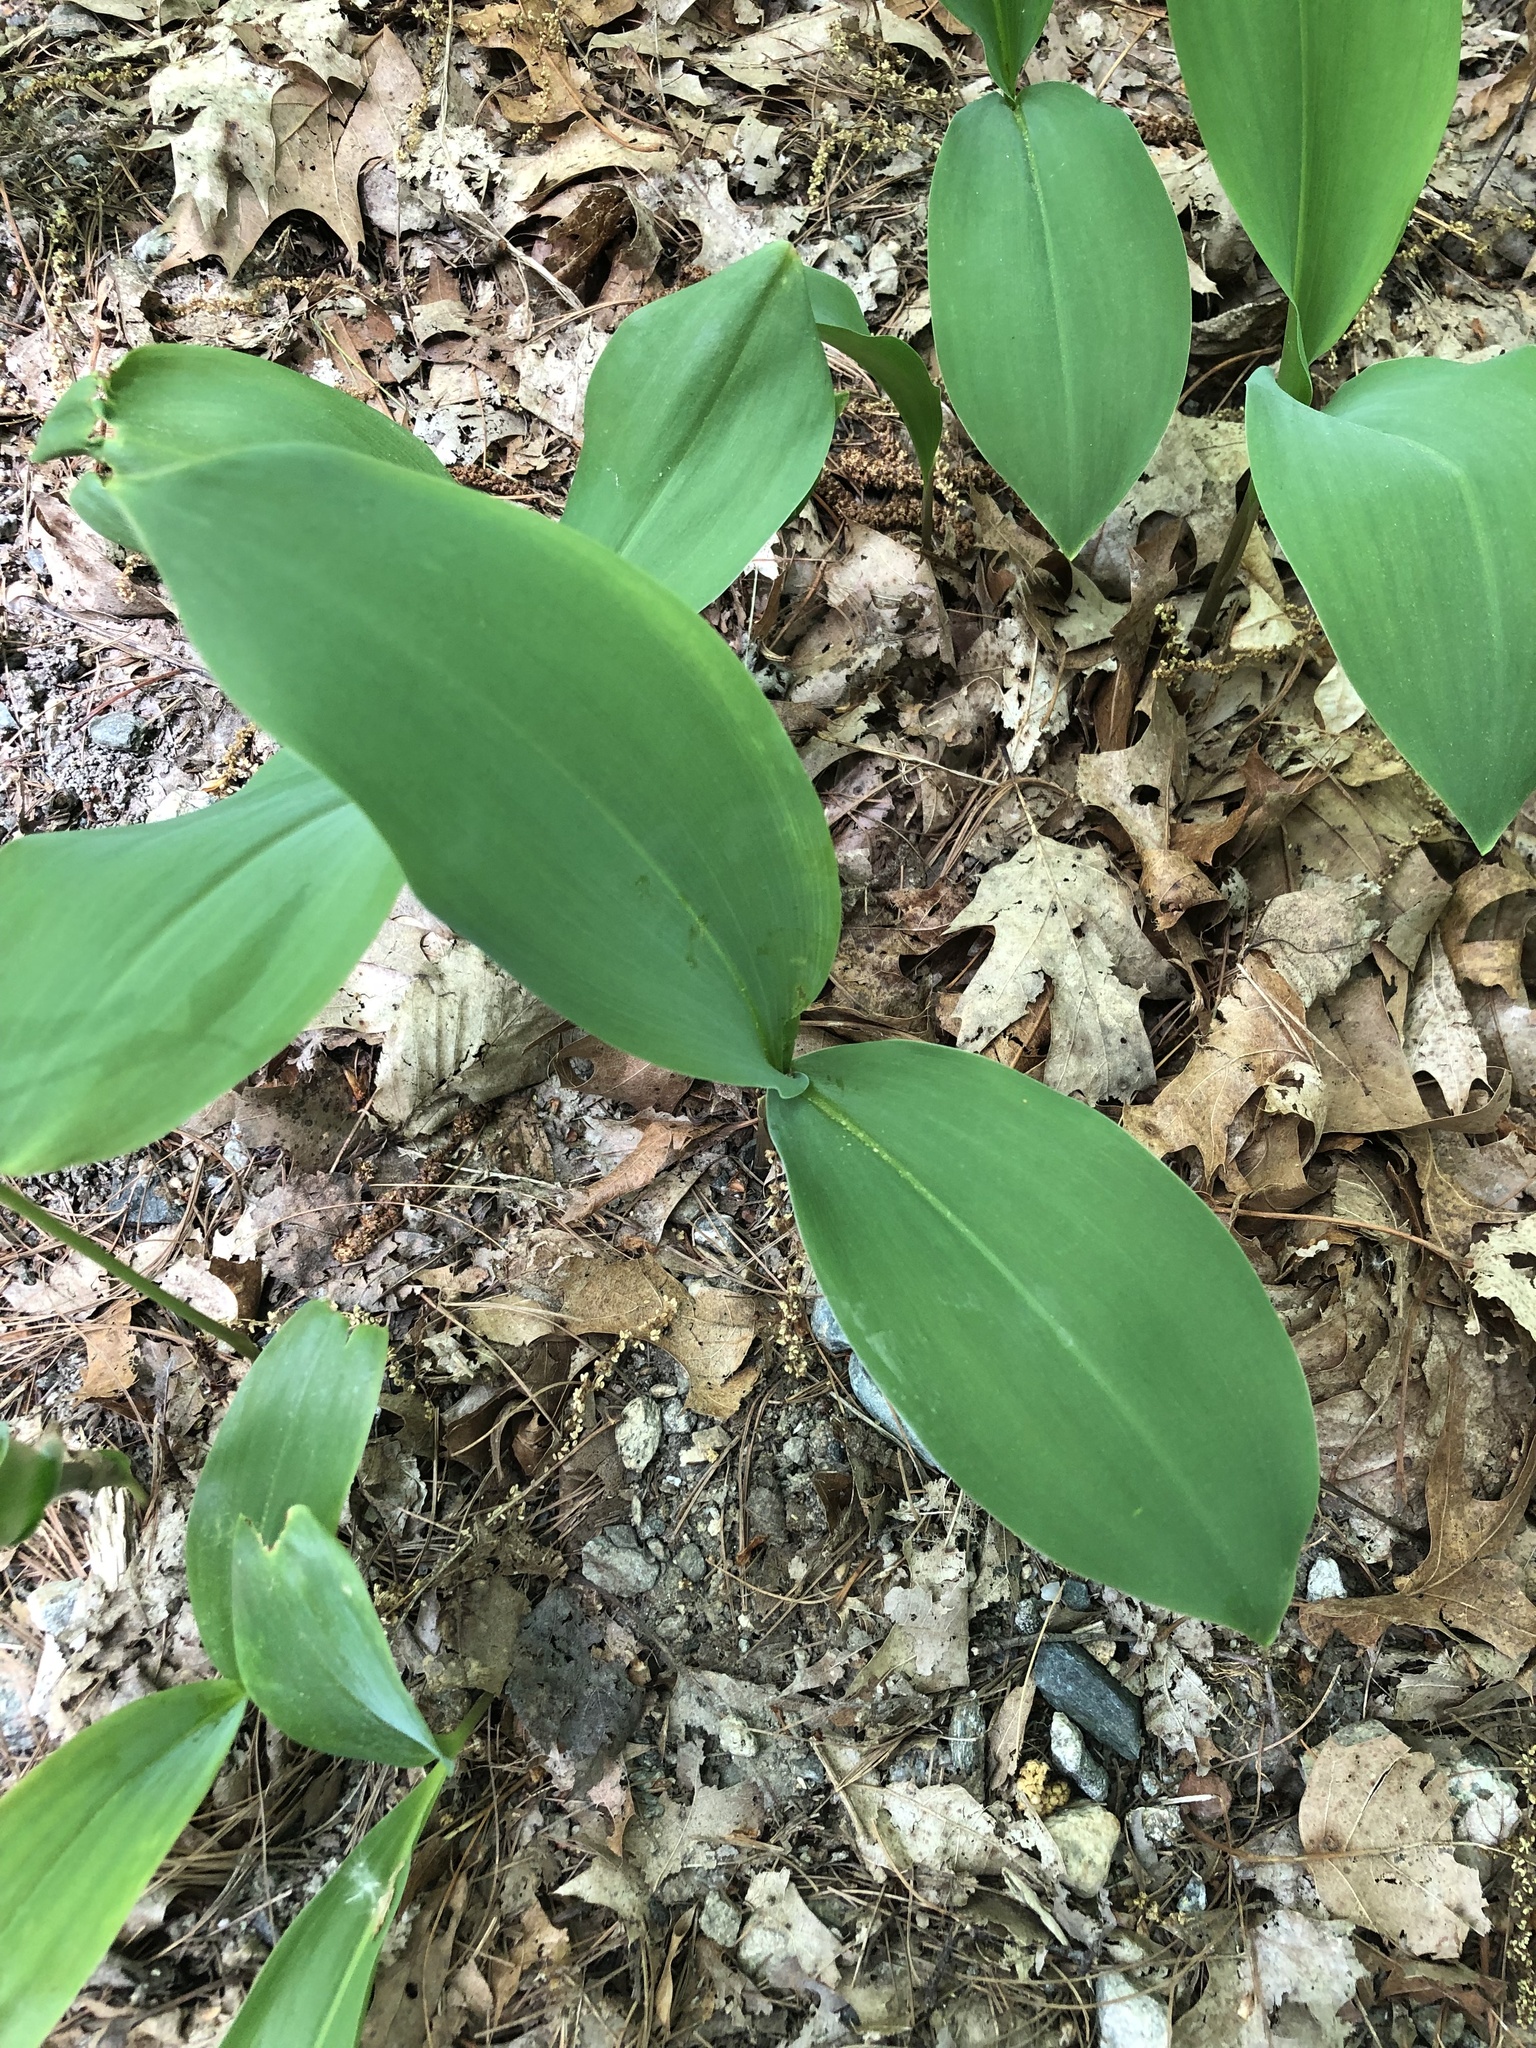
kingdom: Plantae
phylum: Tracheophyta
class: Liliopsida
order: Asparagales
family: Asparagaceae
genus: Convallaria
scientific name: Convallaria majalis
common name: Lily-of-the-valley
